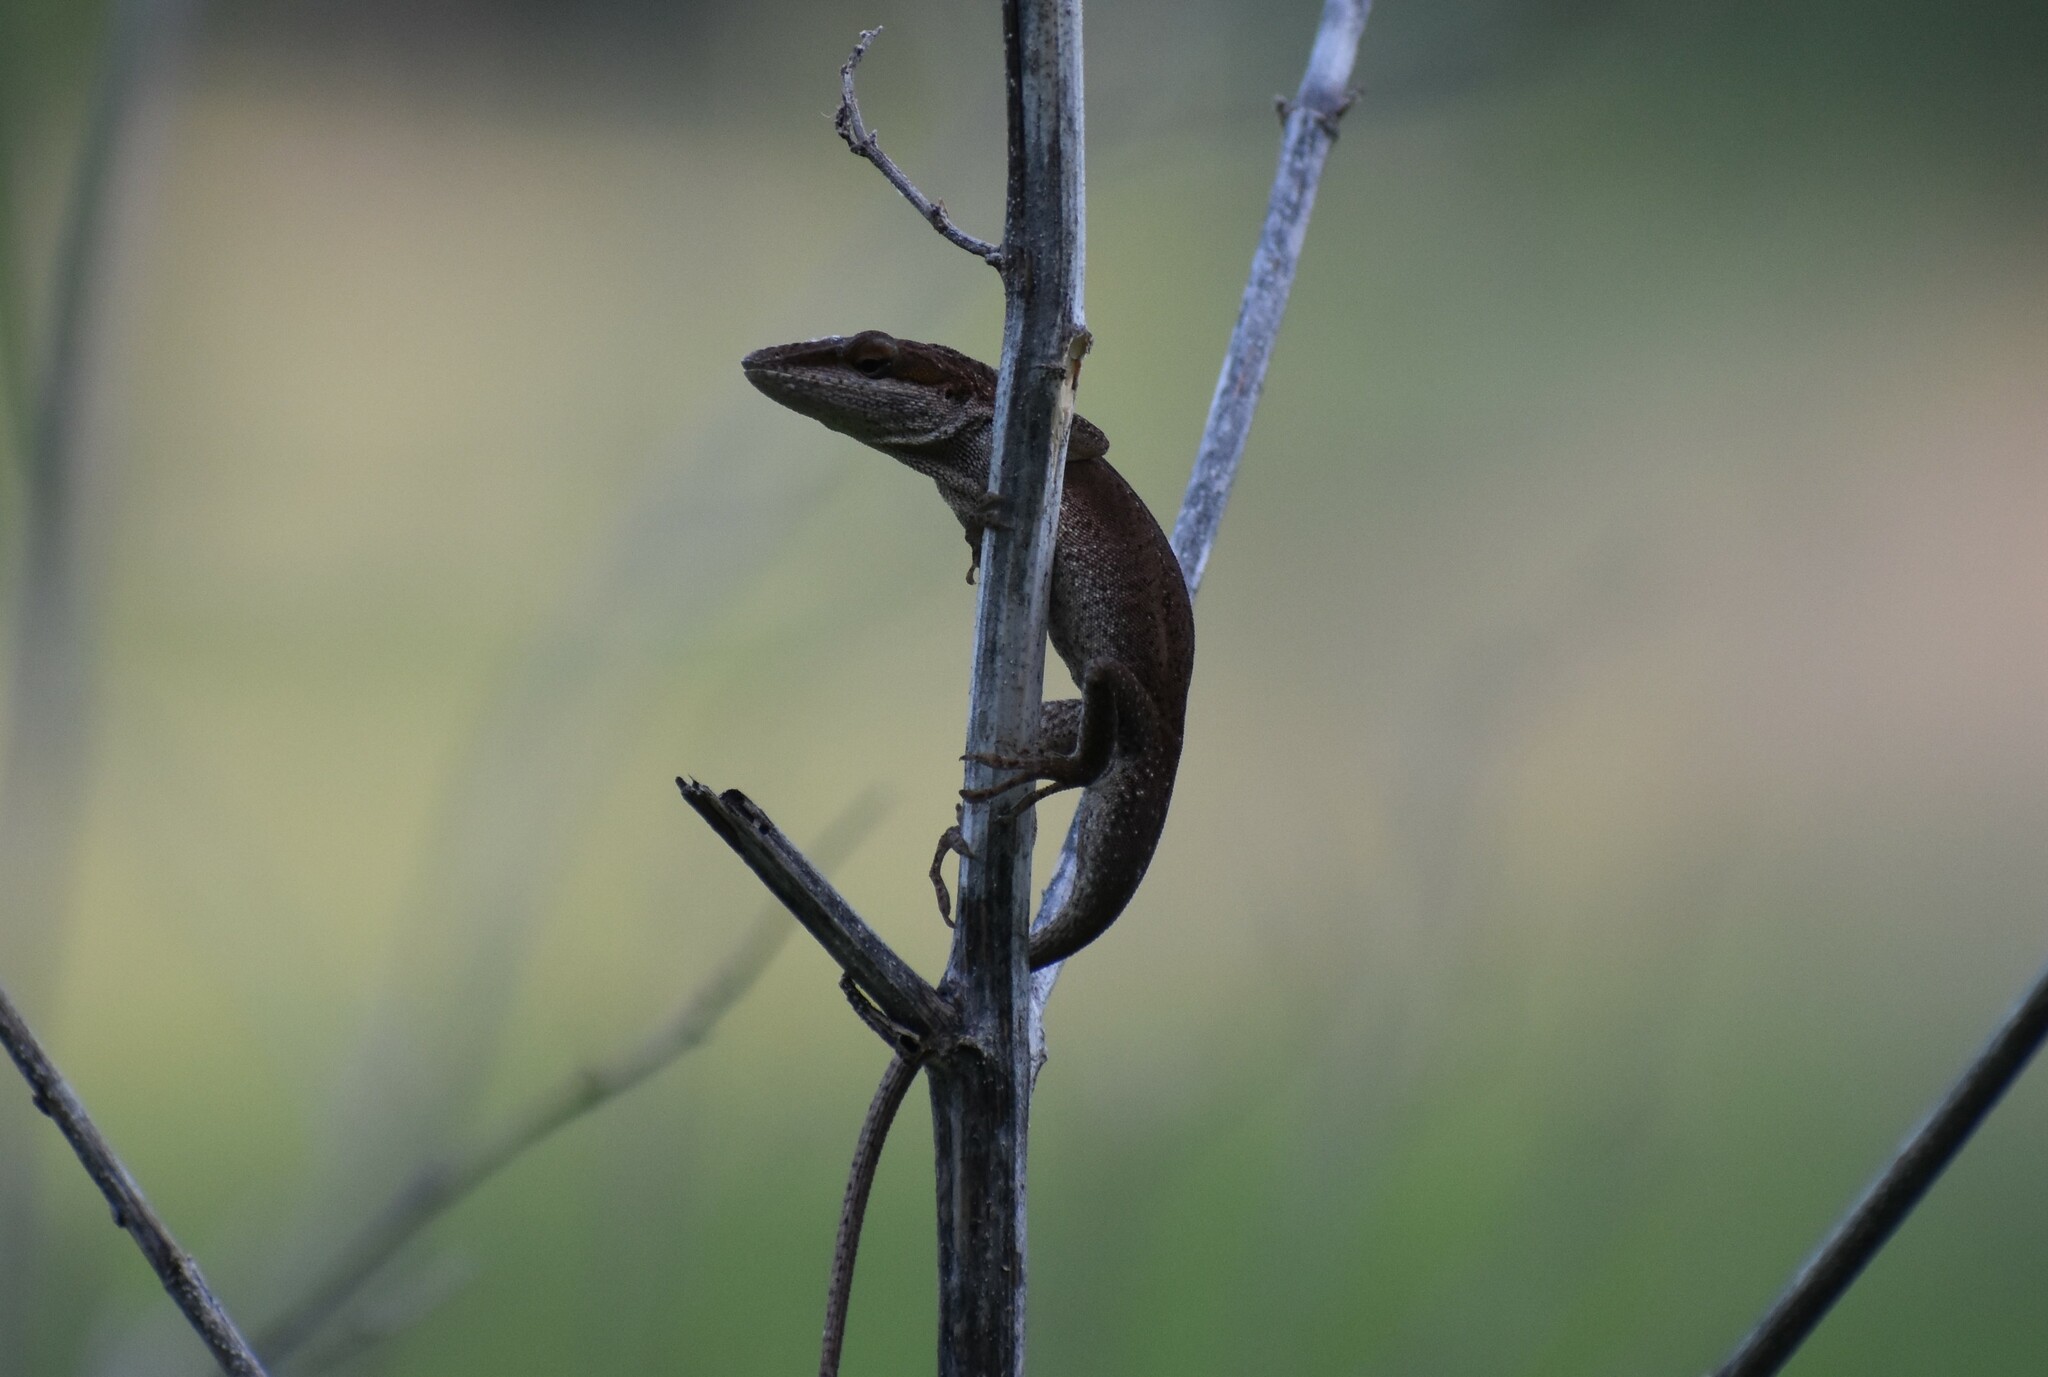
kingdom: Animalia
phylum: Chordata
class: Squamata
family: Dactyloidae
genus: Anolis
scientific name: Anolis carolinensis
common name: Green anole
